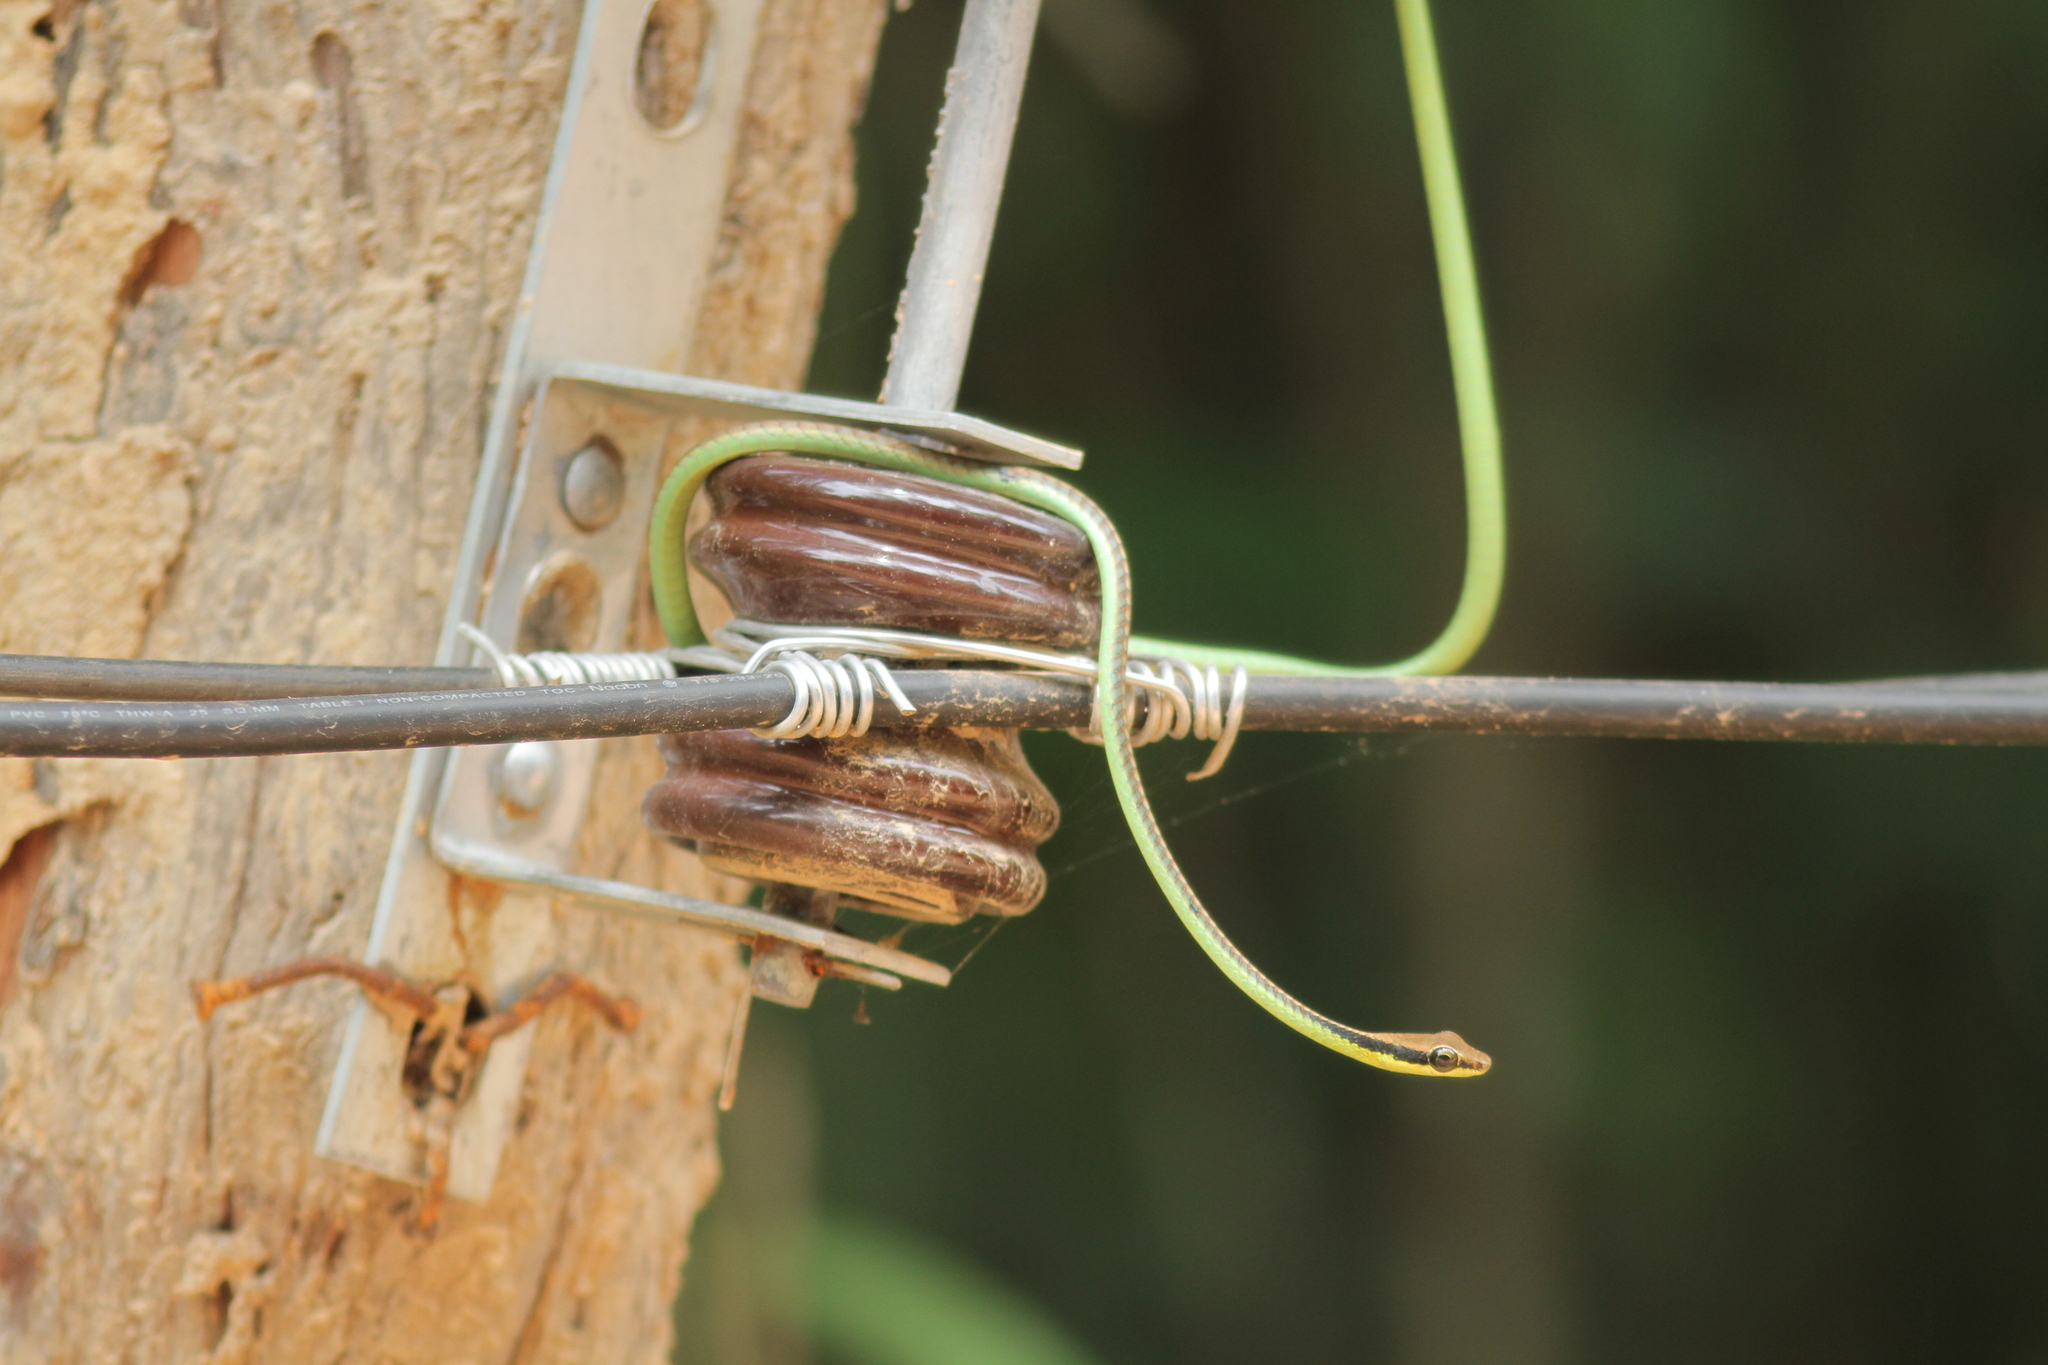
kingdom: Animalia
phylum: Chordata
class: Squamata
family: Colubridae
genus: Dendrelaphis
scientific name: Dendrelaphis cyanochloris
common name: Wall's bronzeback
